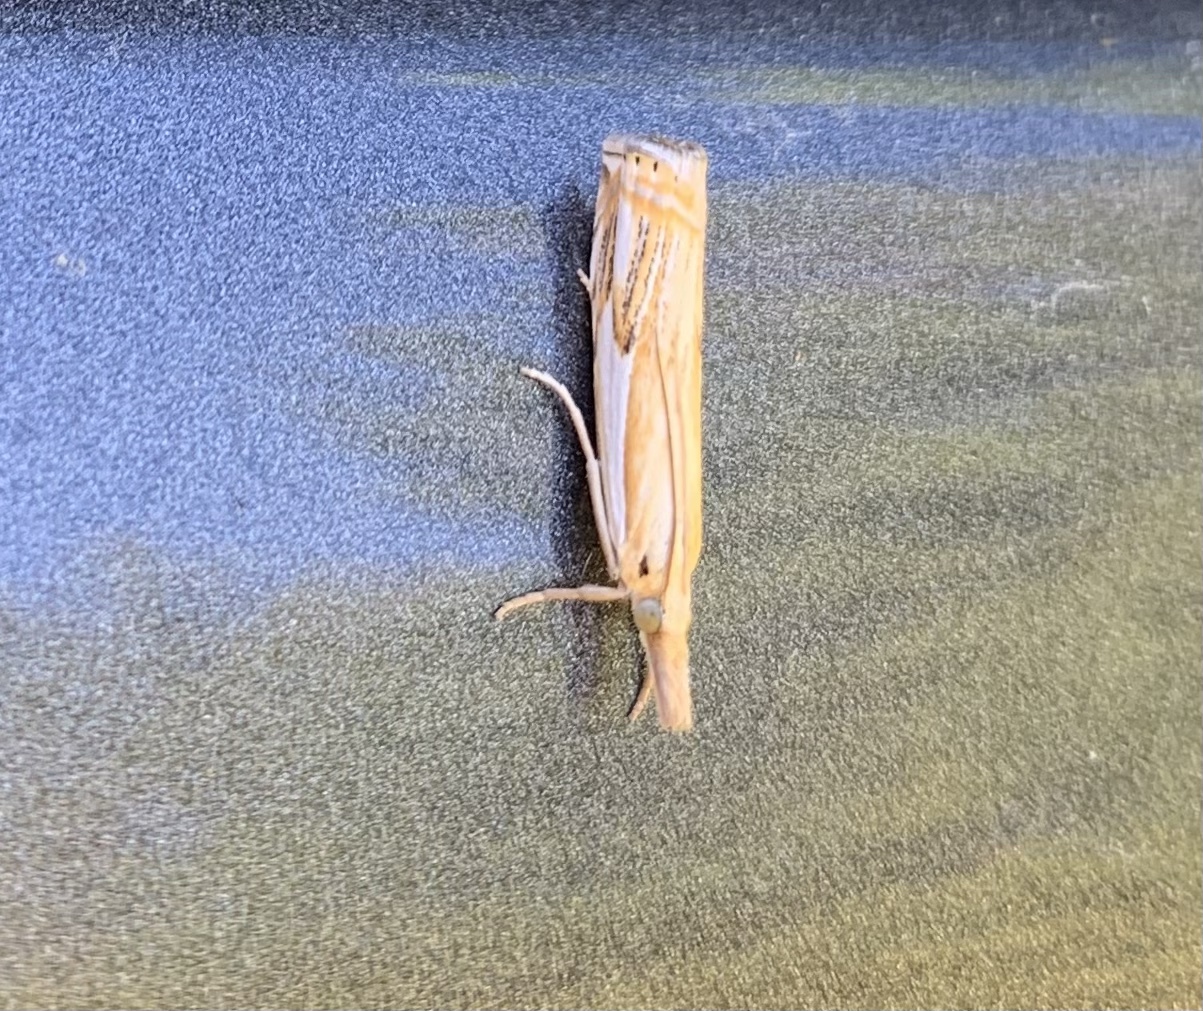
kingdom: Animalia
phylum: Arthropoda
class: Insecta
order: Lepidoptera
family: Crambidae
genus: Crambus
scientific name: Crambus agitatellus
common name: Double-banded grass-veneer
